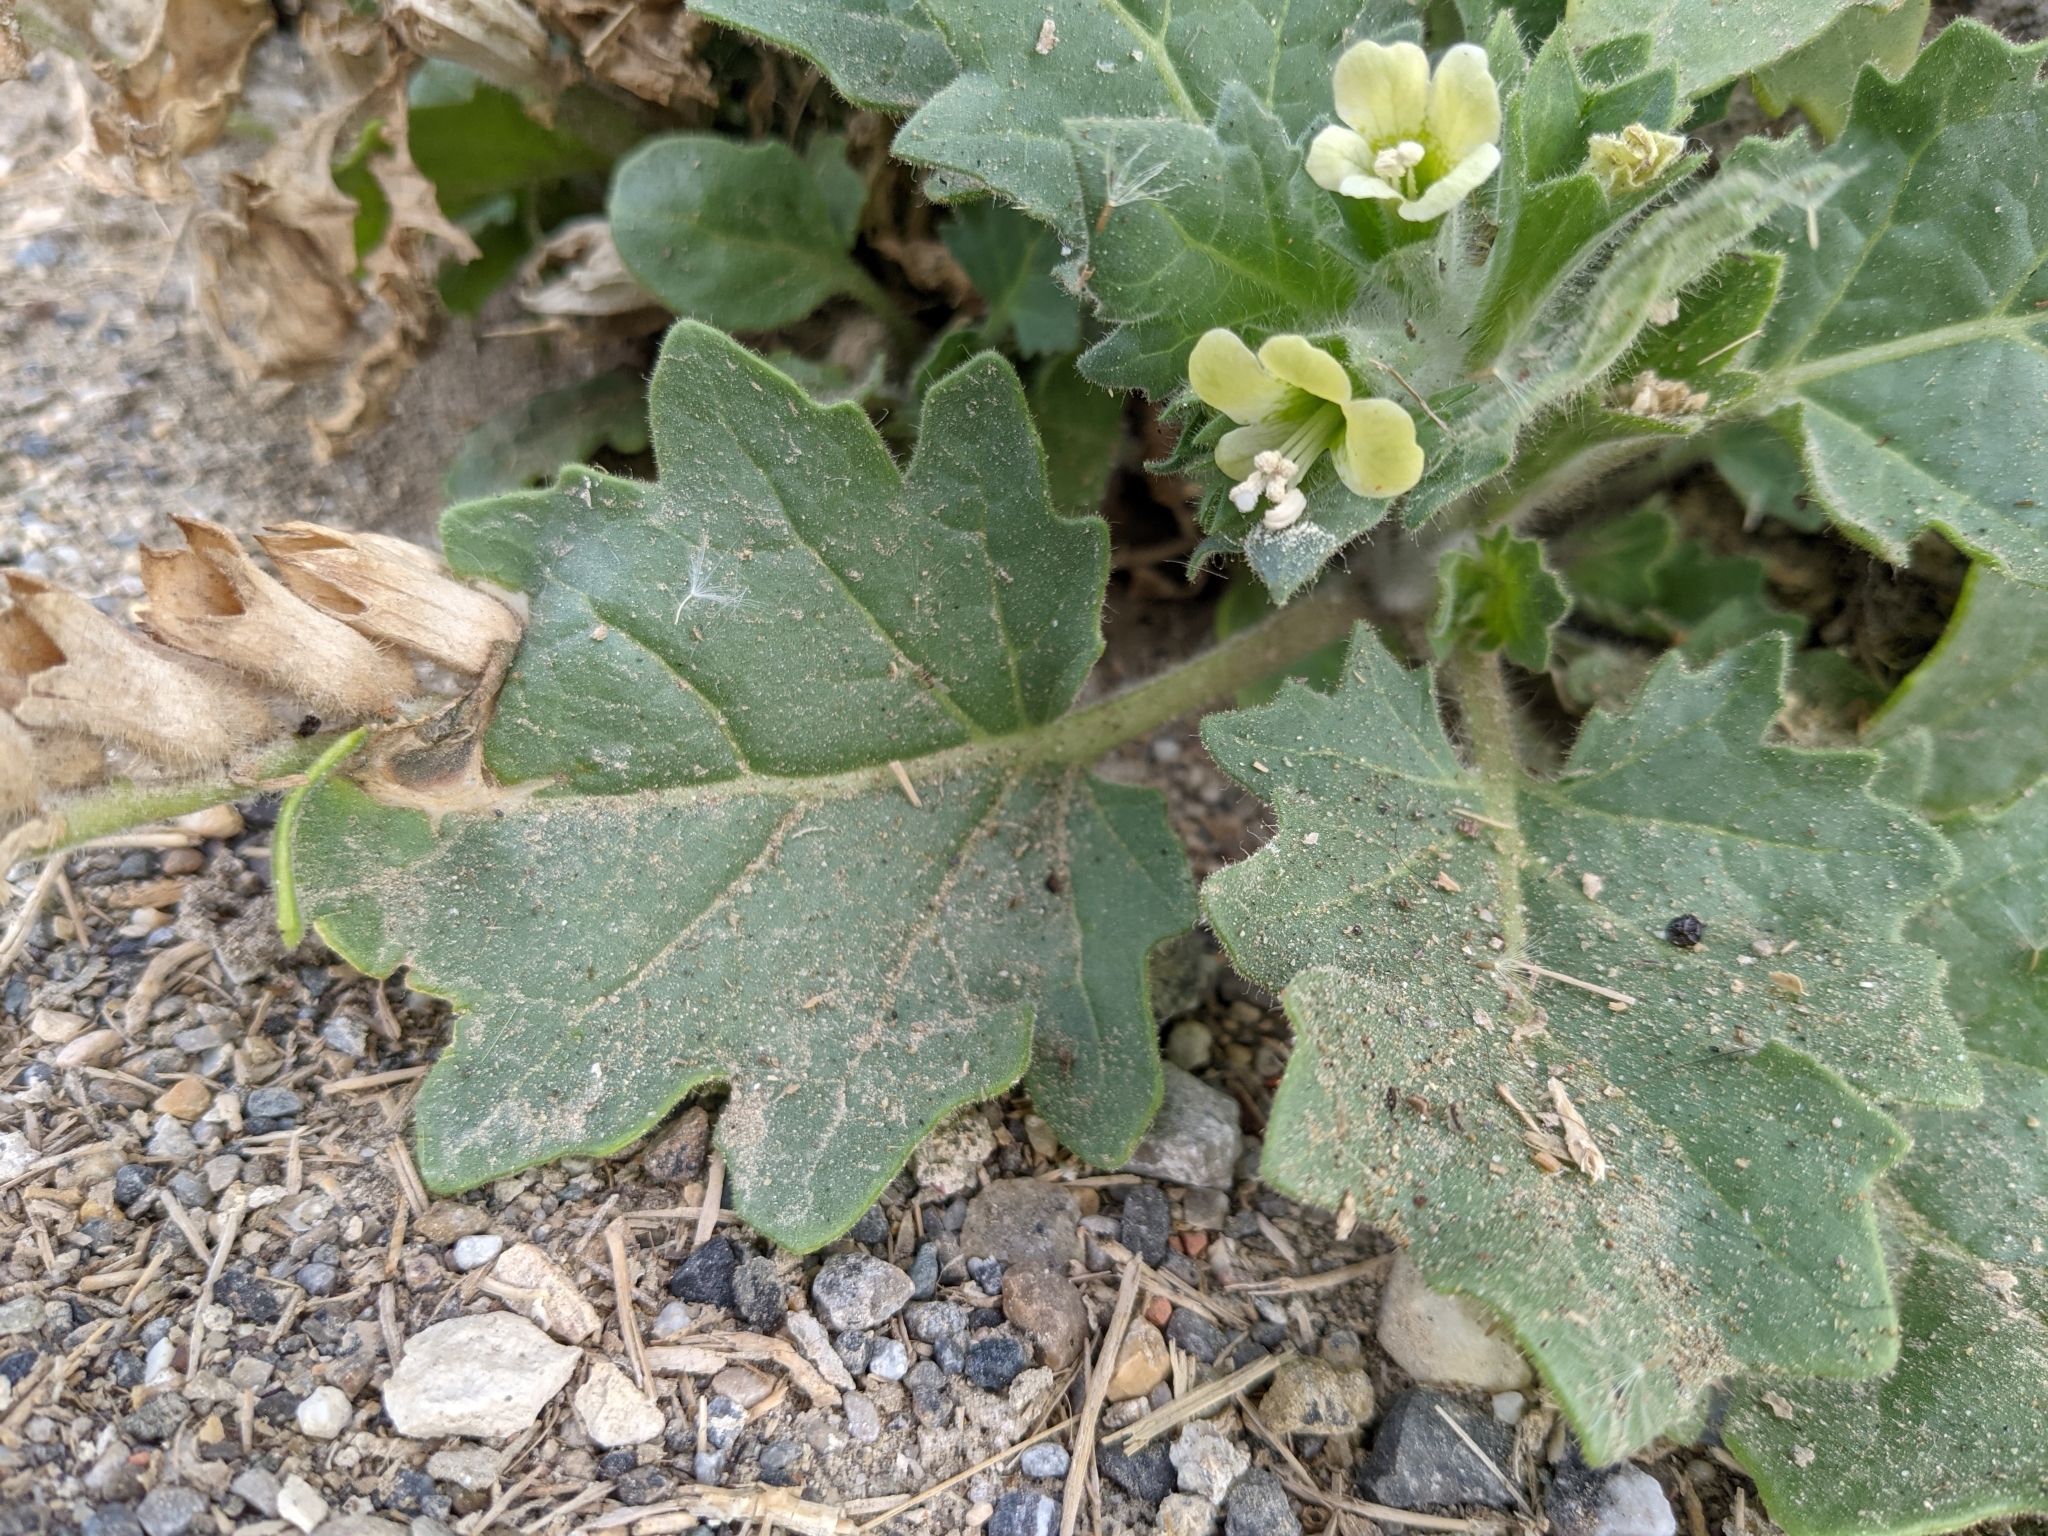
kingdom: Plantae
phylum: Tracheophyta
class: Magnoliopsida
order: Solanales
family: Solanaceae
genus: Hyoscyamus
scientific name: Hyoscyamus albus
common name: White henbane
